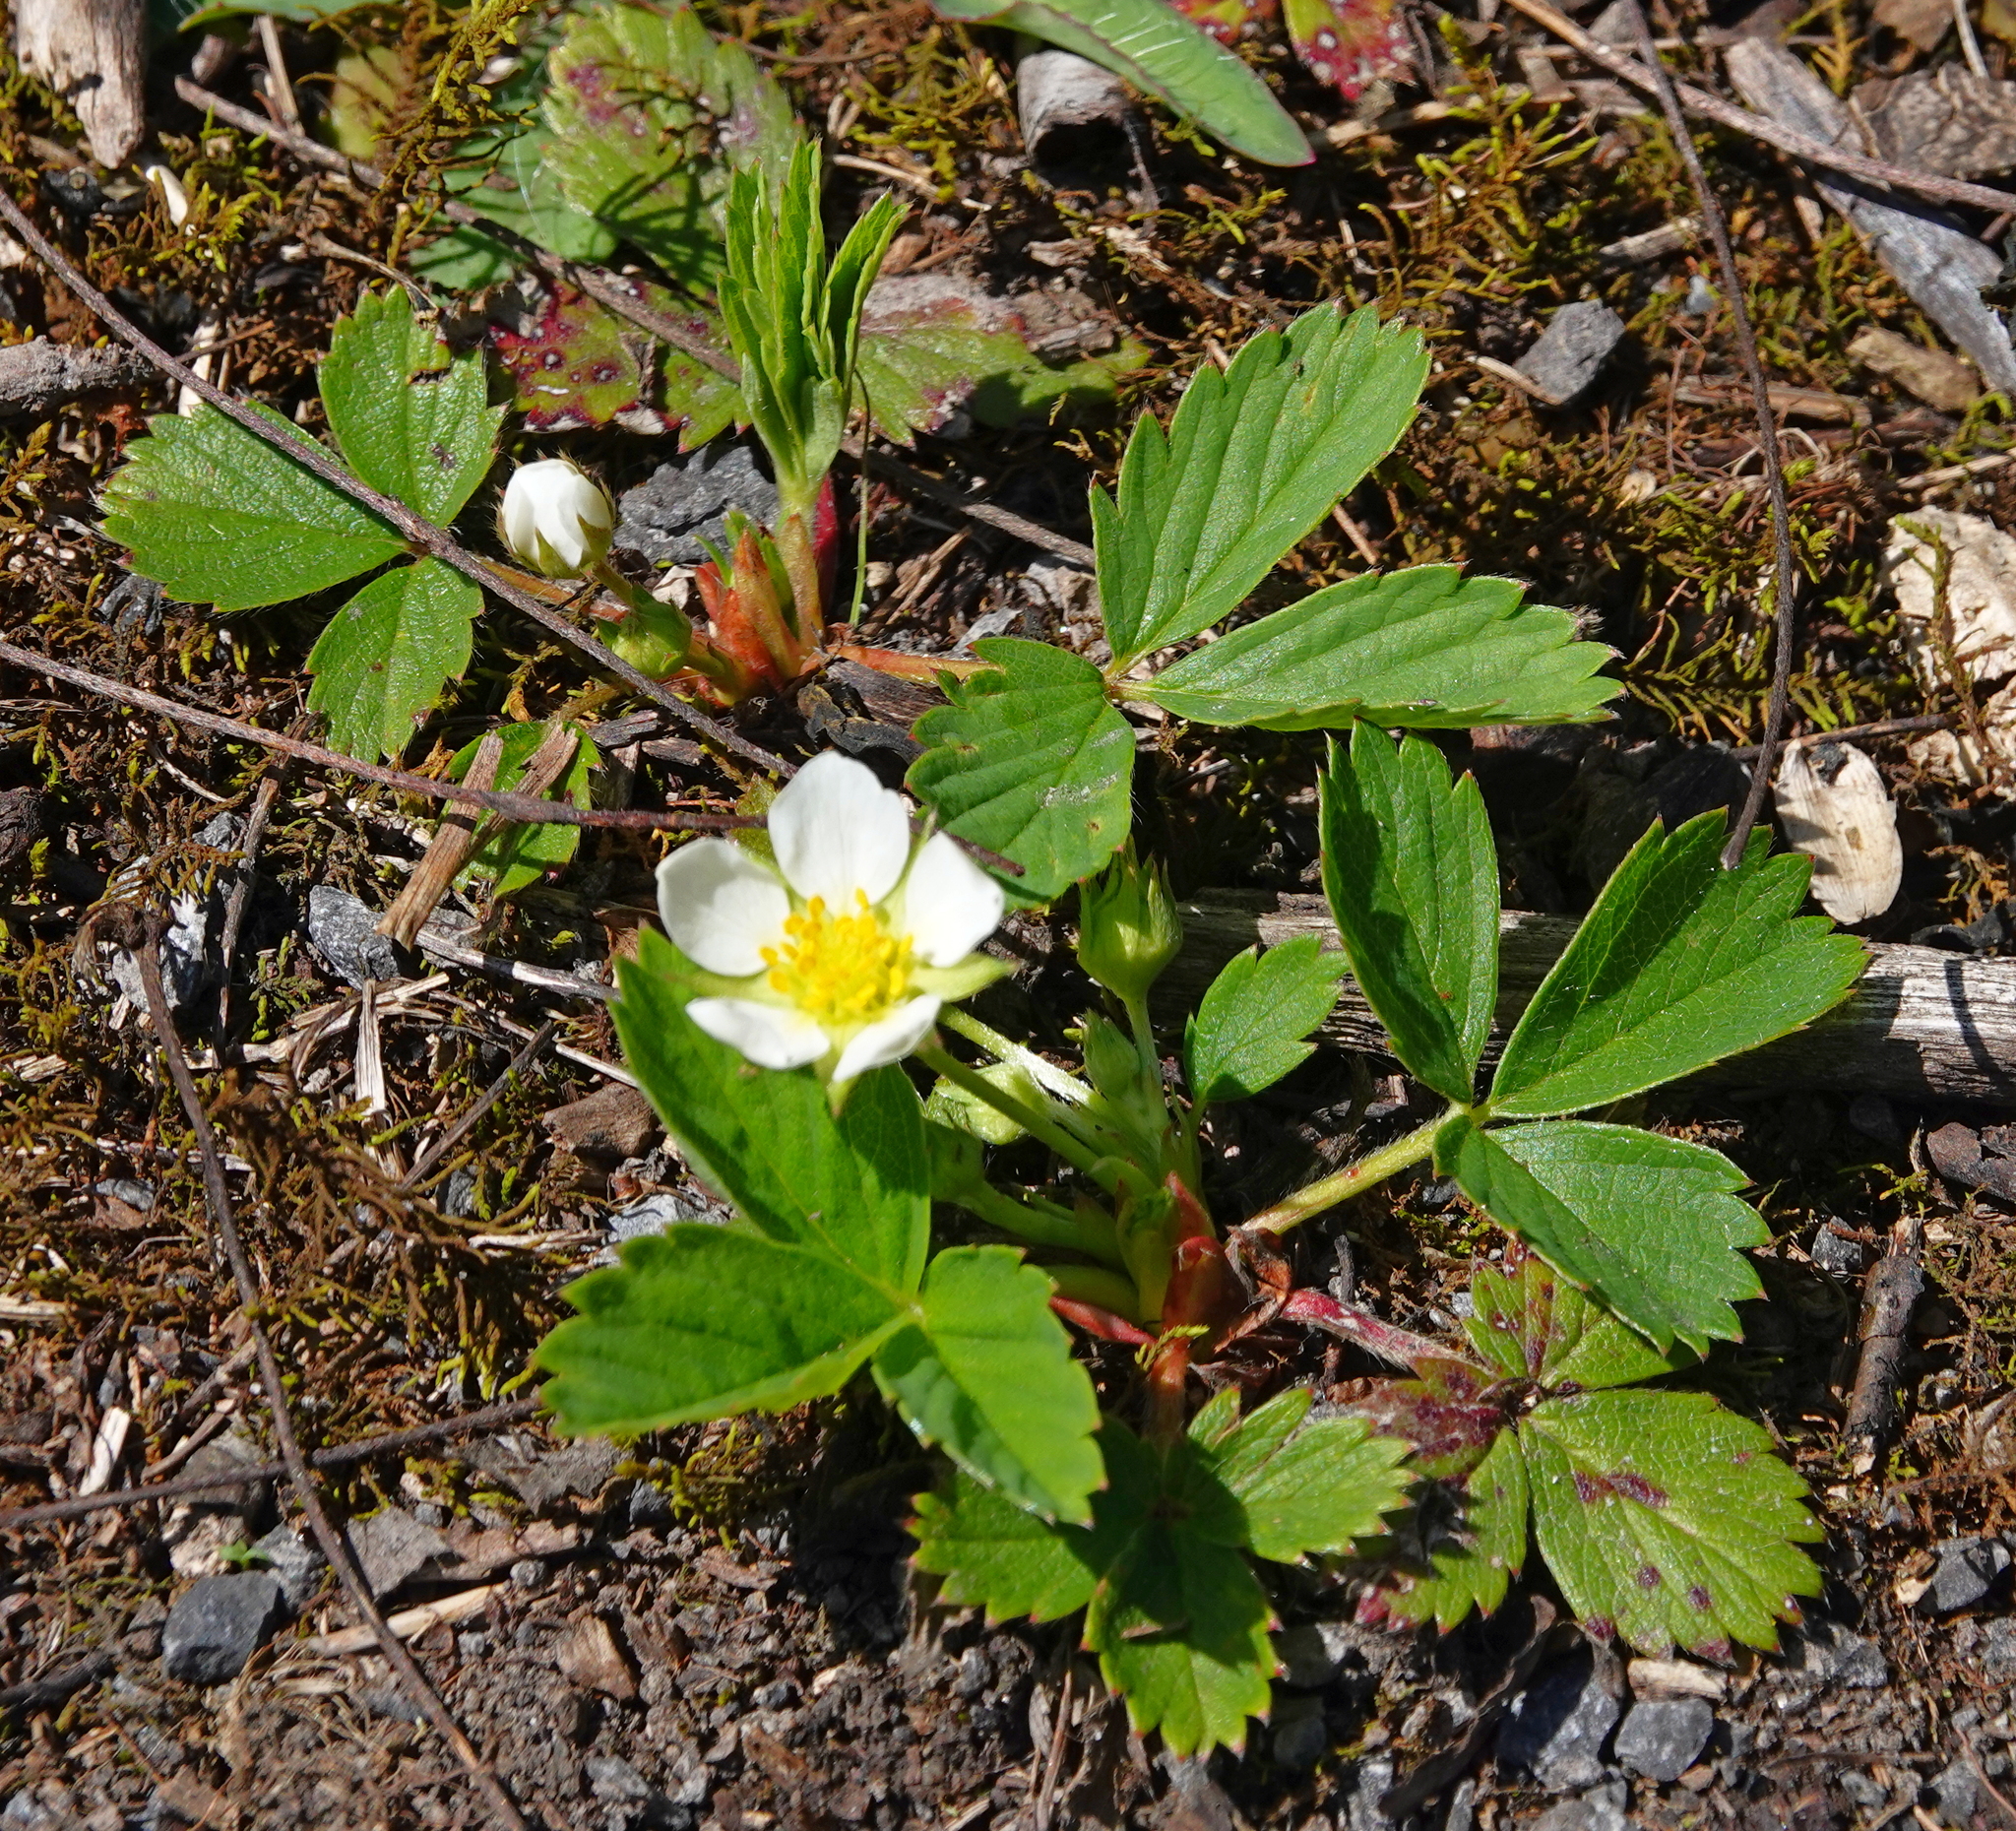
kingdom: Plantae
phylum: Tracheophyta
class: Magnoliopsida
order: Rosales
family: Rosaceae
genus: Fragaria
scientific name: Fragaria virginiana
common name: Thickleaved wild strawberry
